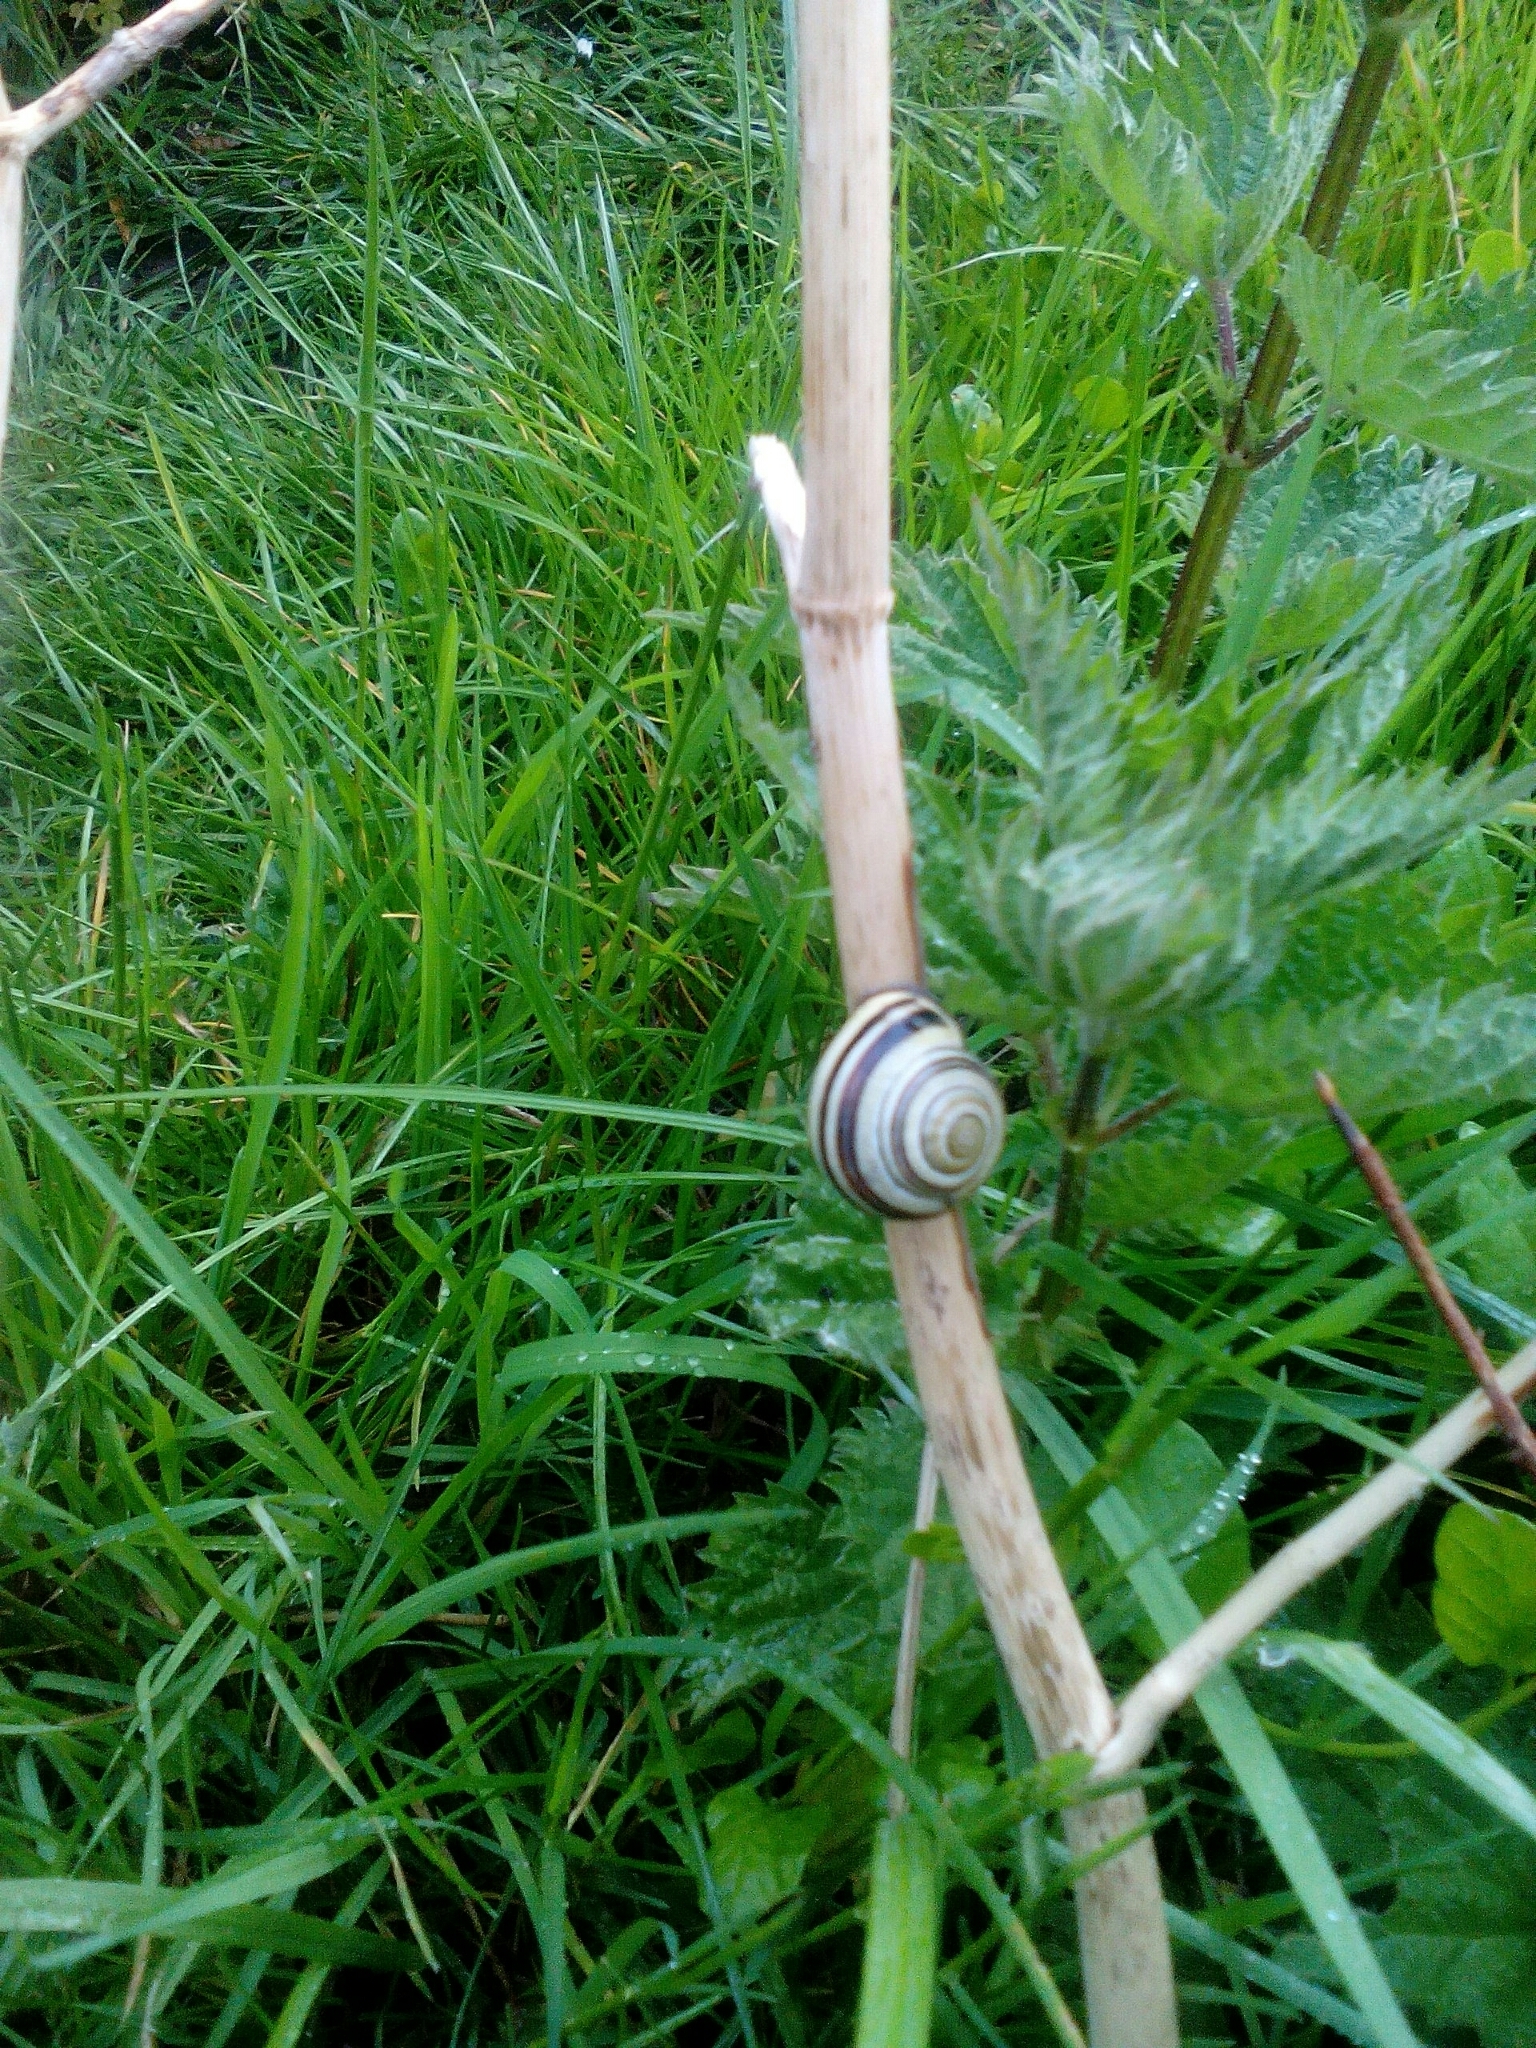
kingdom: Animalia
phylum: Mollusca
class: Gastropoda
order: Stylommatophora
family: Helicidae
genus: Cepaea
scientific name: Cepaea nemoralis
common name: Grovesnail
